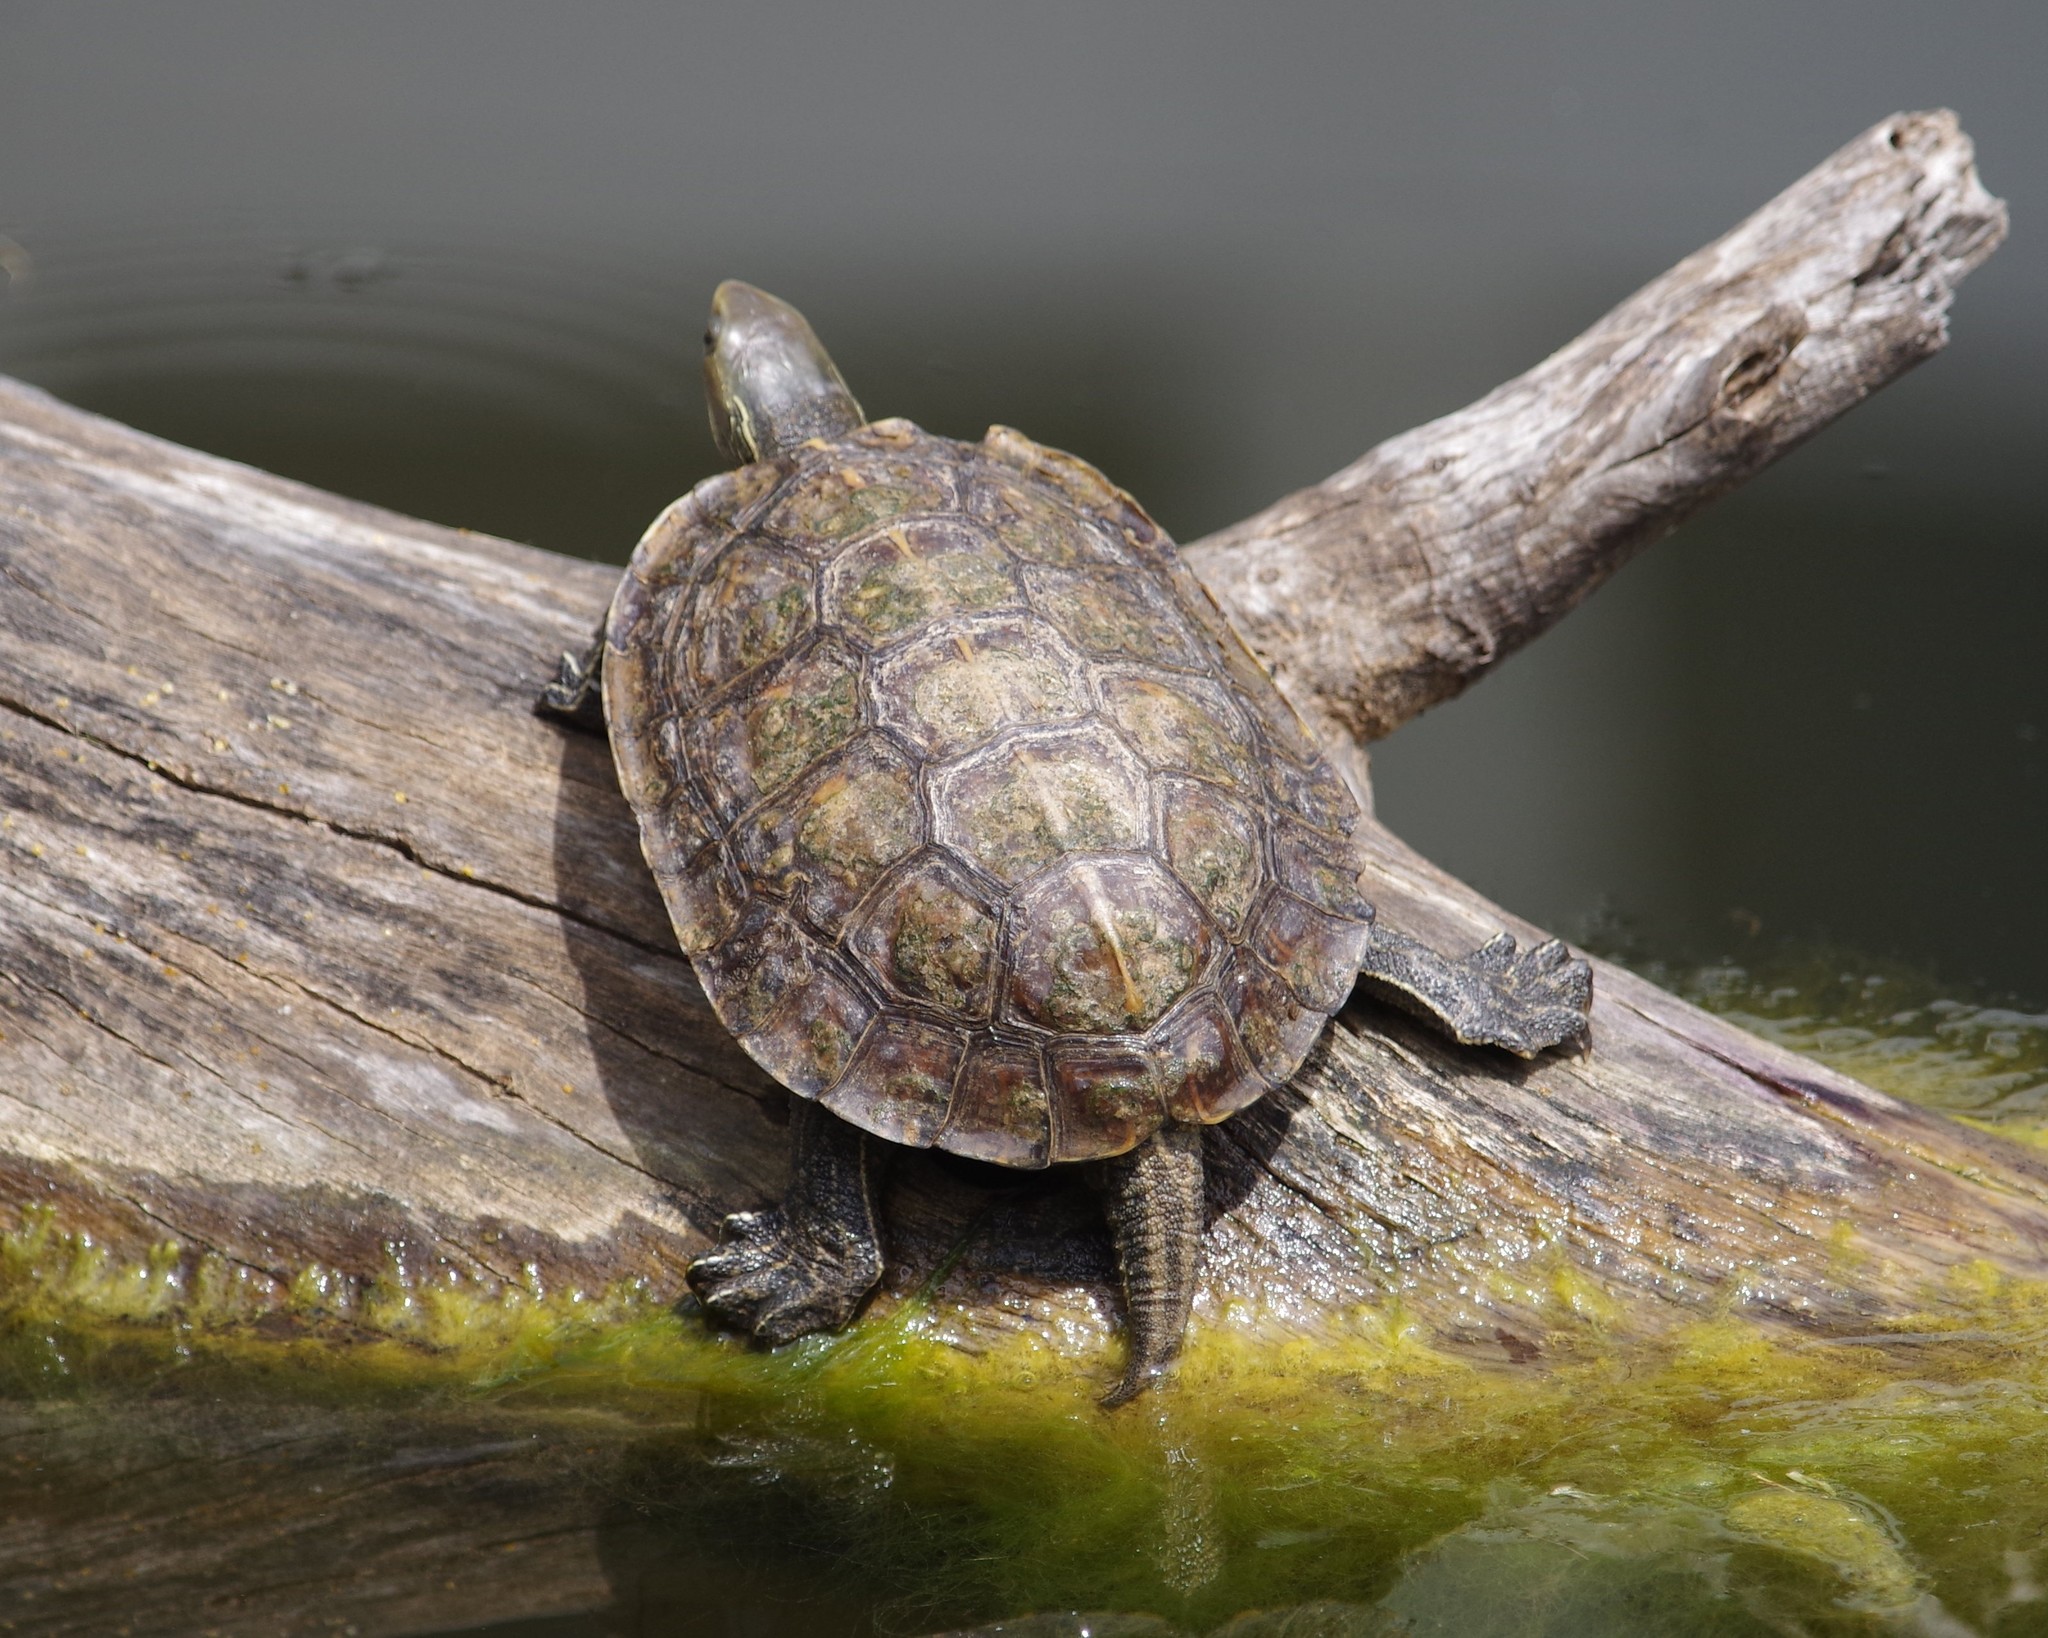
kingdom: Animalia
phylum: Chordata
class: Testudines
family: Geoemydidae
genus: Mauremys
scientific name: Mauremys rivulata
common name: Western caspian turtle
